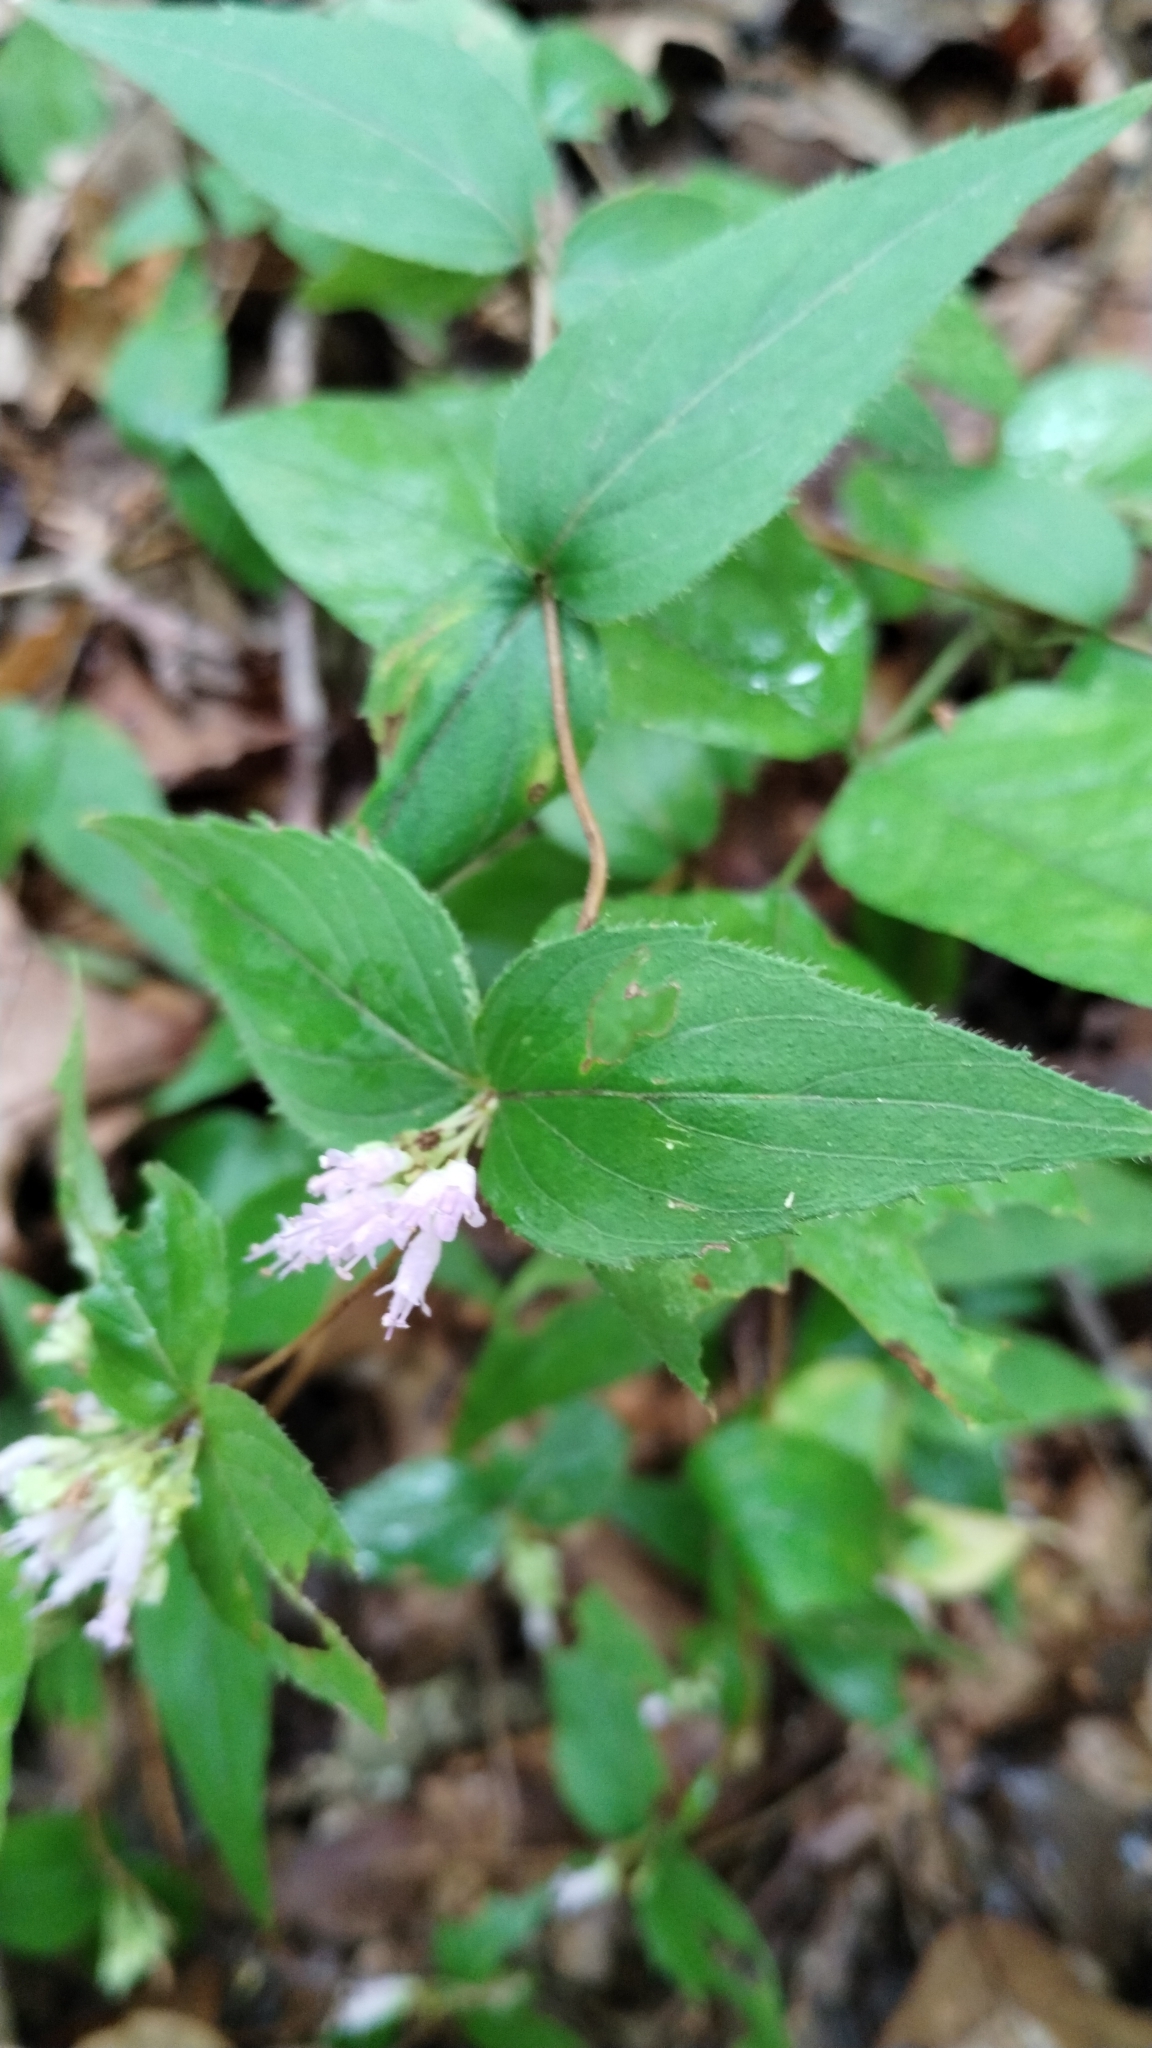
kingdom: Plantae
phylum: Tracheophyta
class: Magnoliopsida
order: Lamiales
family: Lamiaceae
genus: Cunila
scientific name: Cunila origanoides
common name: American dittany
